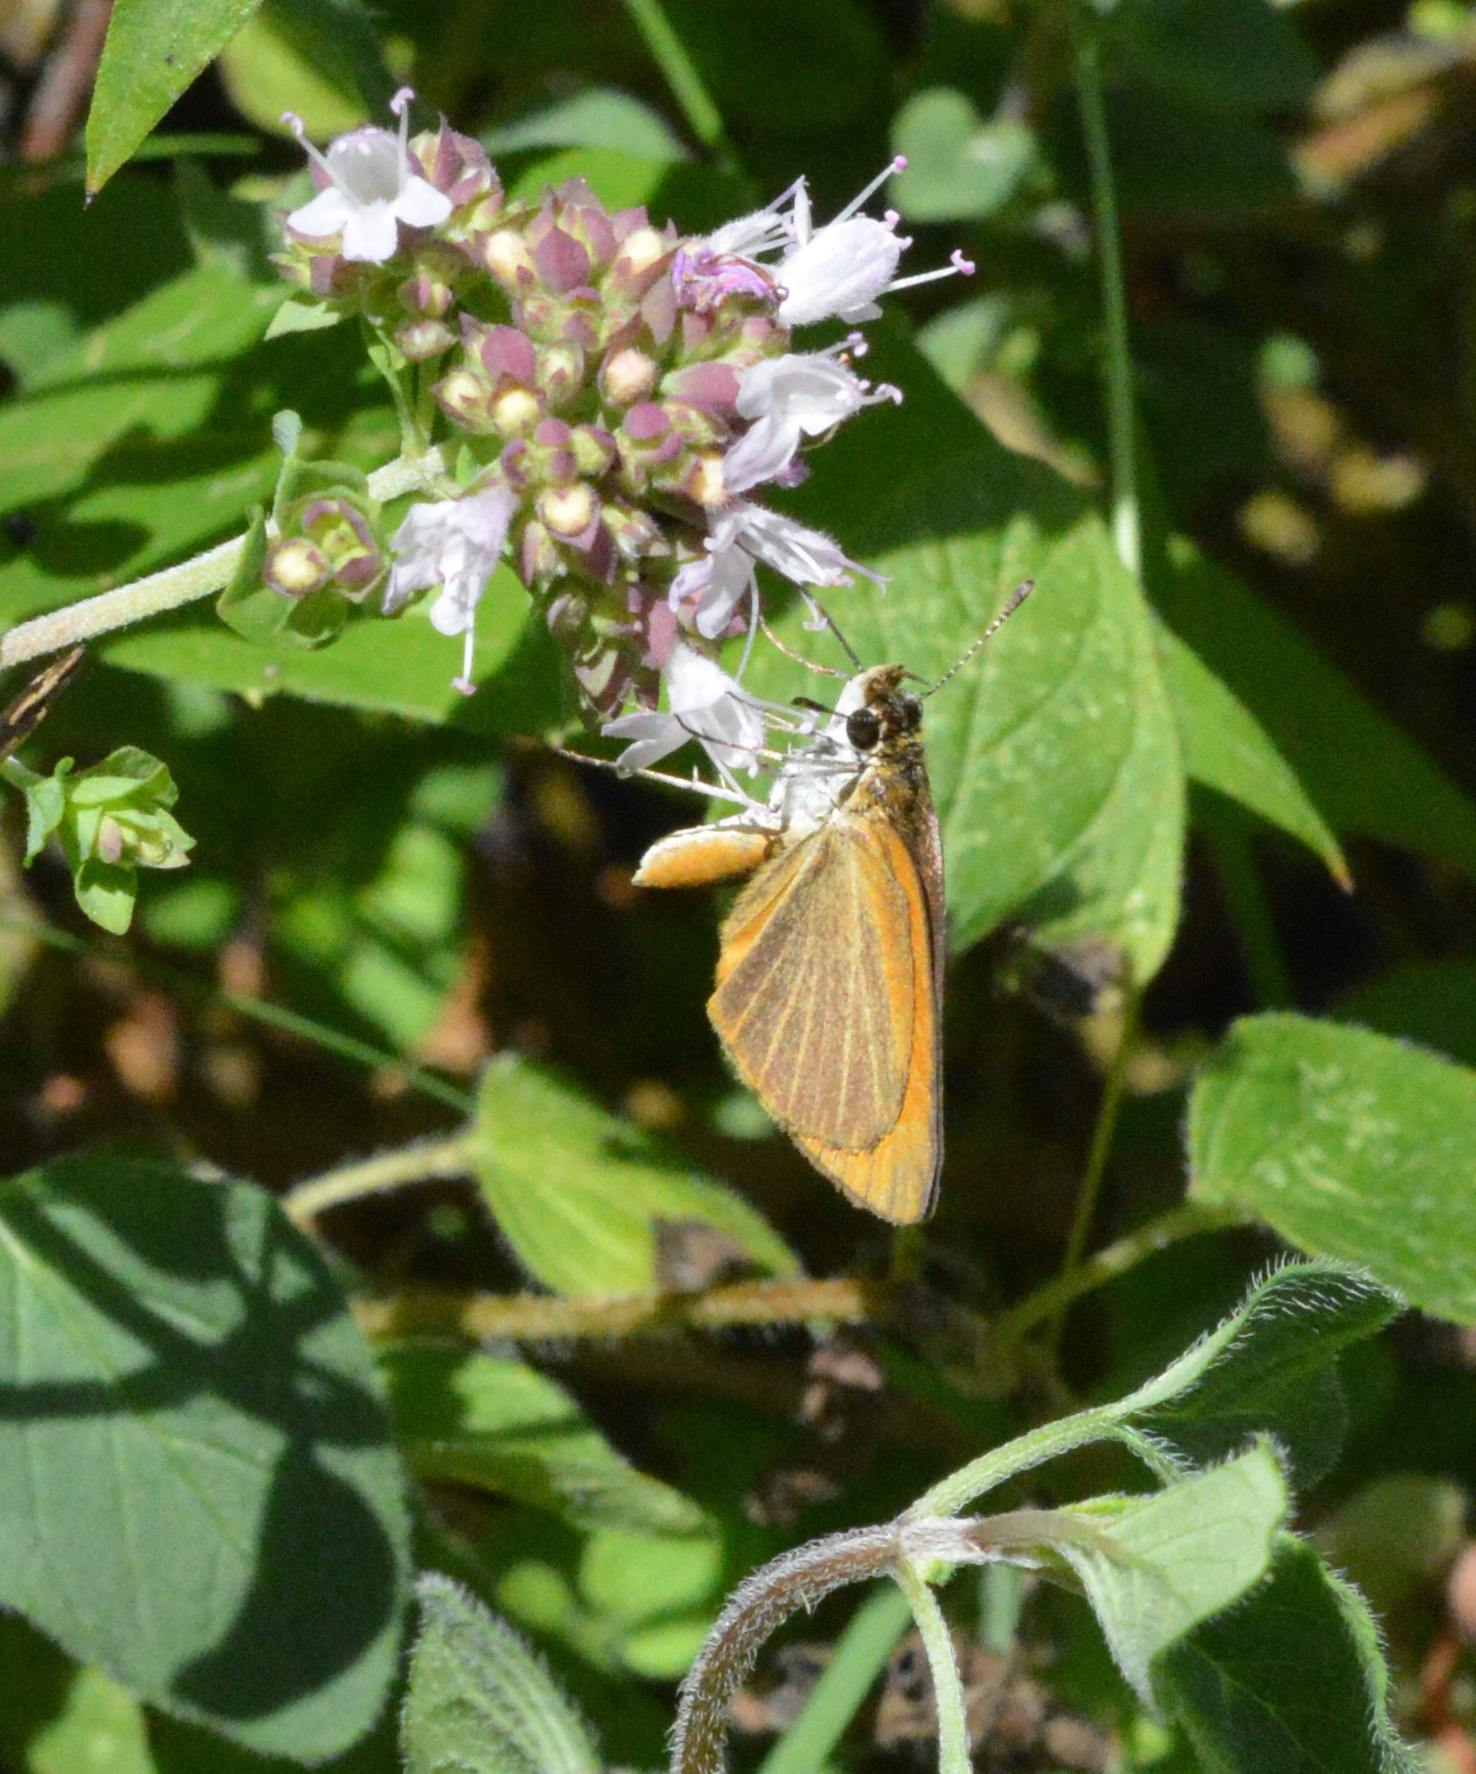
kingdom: Animalia
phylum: Arthropoda
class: Insecta
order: Lepidoptera
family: Hesperiidae
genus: Ancyloxypha
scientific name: Ancyloxypha numitor
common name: Least skipper
